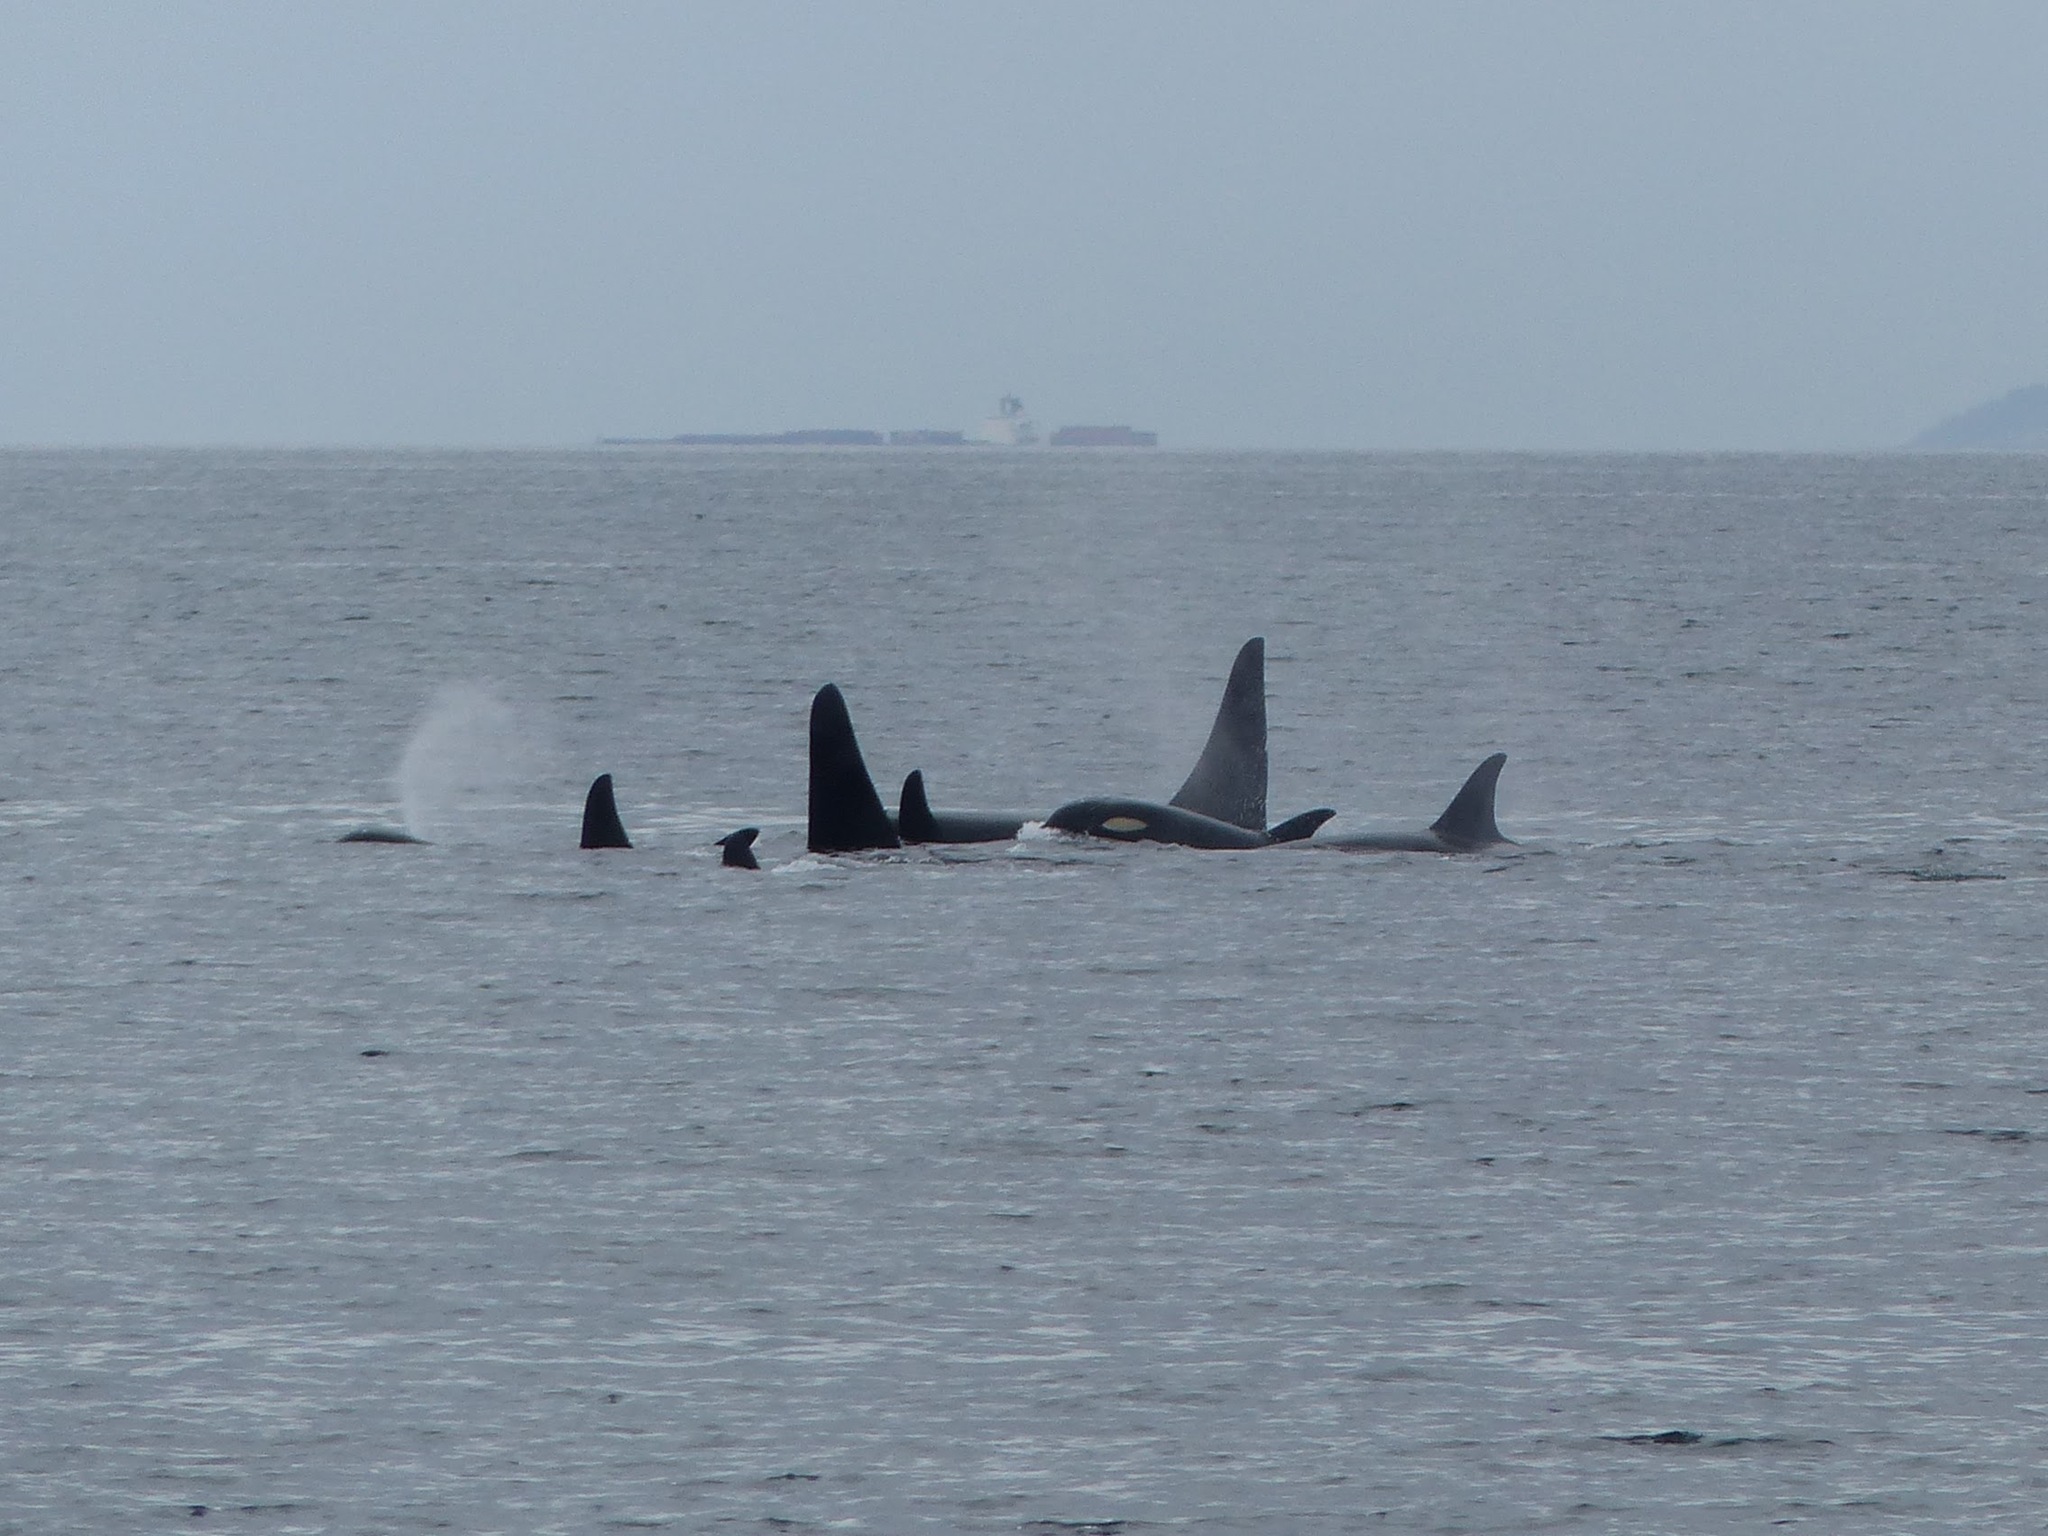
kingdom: Animalia
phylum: Chordata
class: Mammalia
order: Cetacea
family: Delphinidae
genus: Orcinus
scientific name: Orcinus orca
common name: Killer whale
